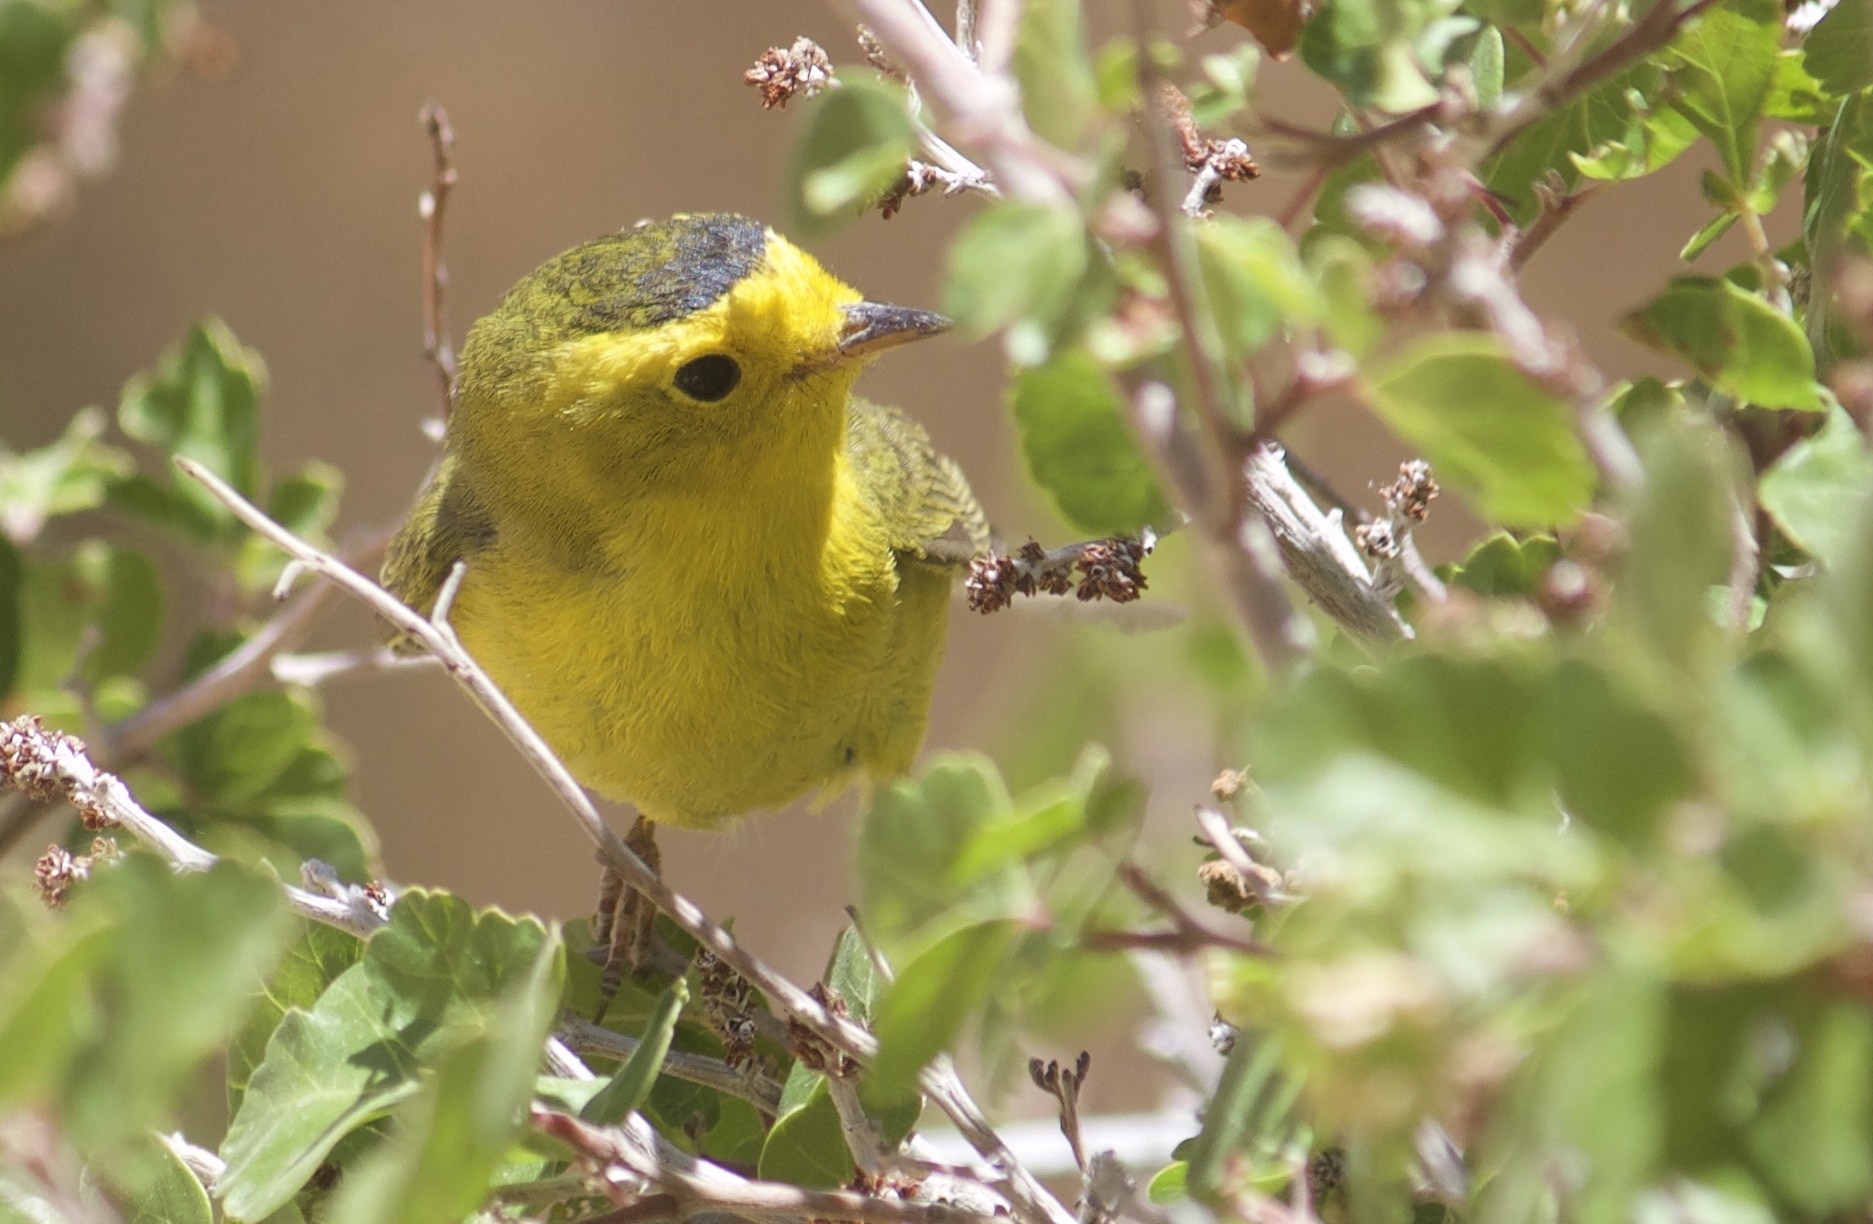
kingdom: Animalia
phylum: Chordata
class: Aves
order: Passeriformes
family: Parulidae
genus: Cardellina
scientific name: Cardellina pusilla
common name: Wilson's warbler
